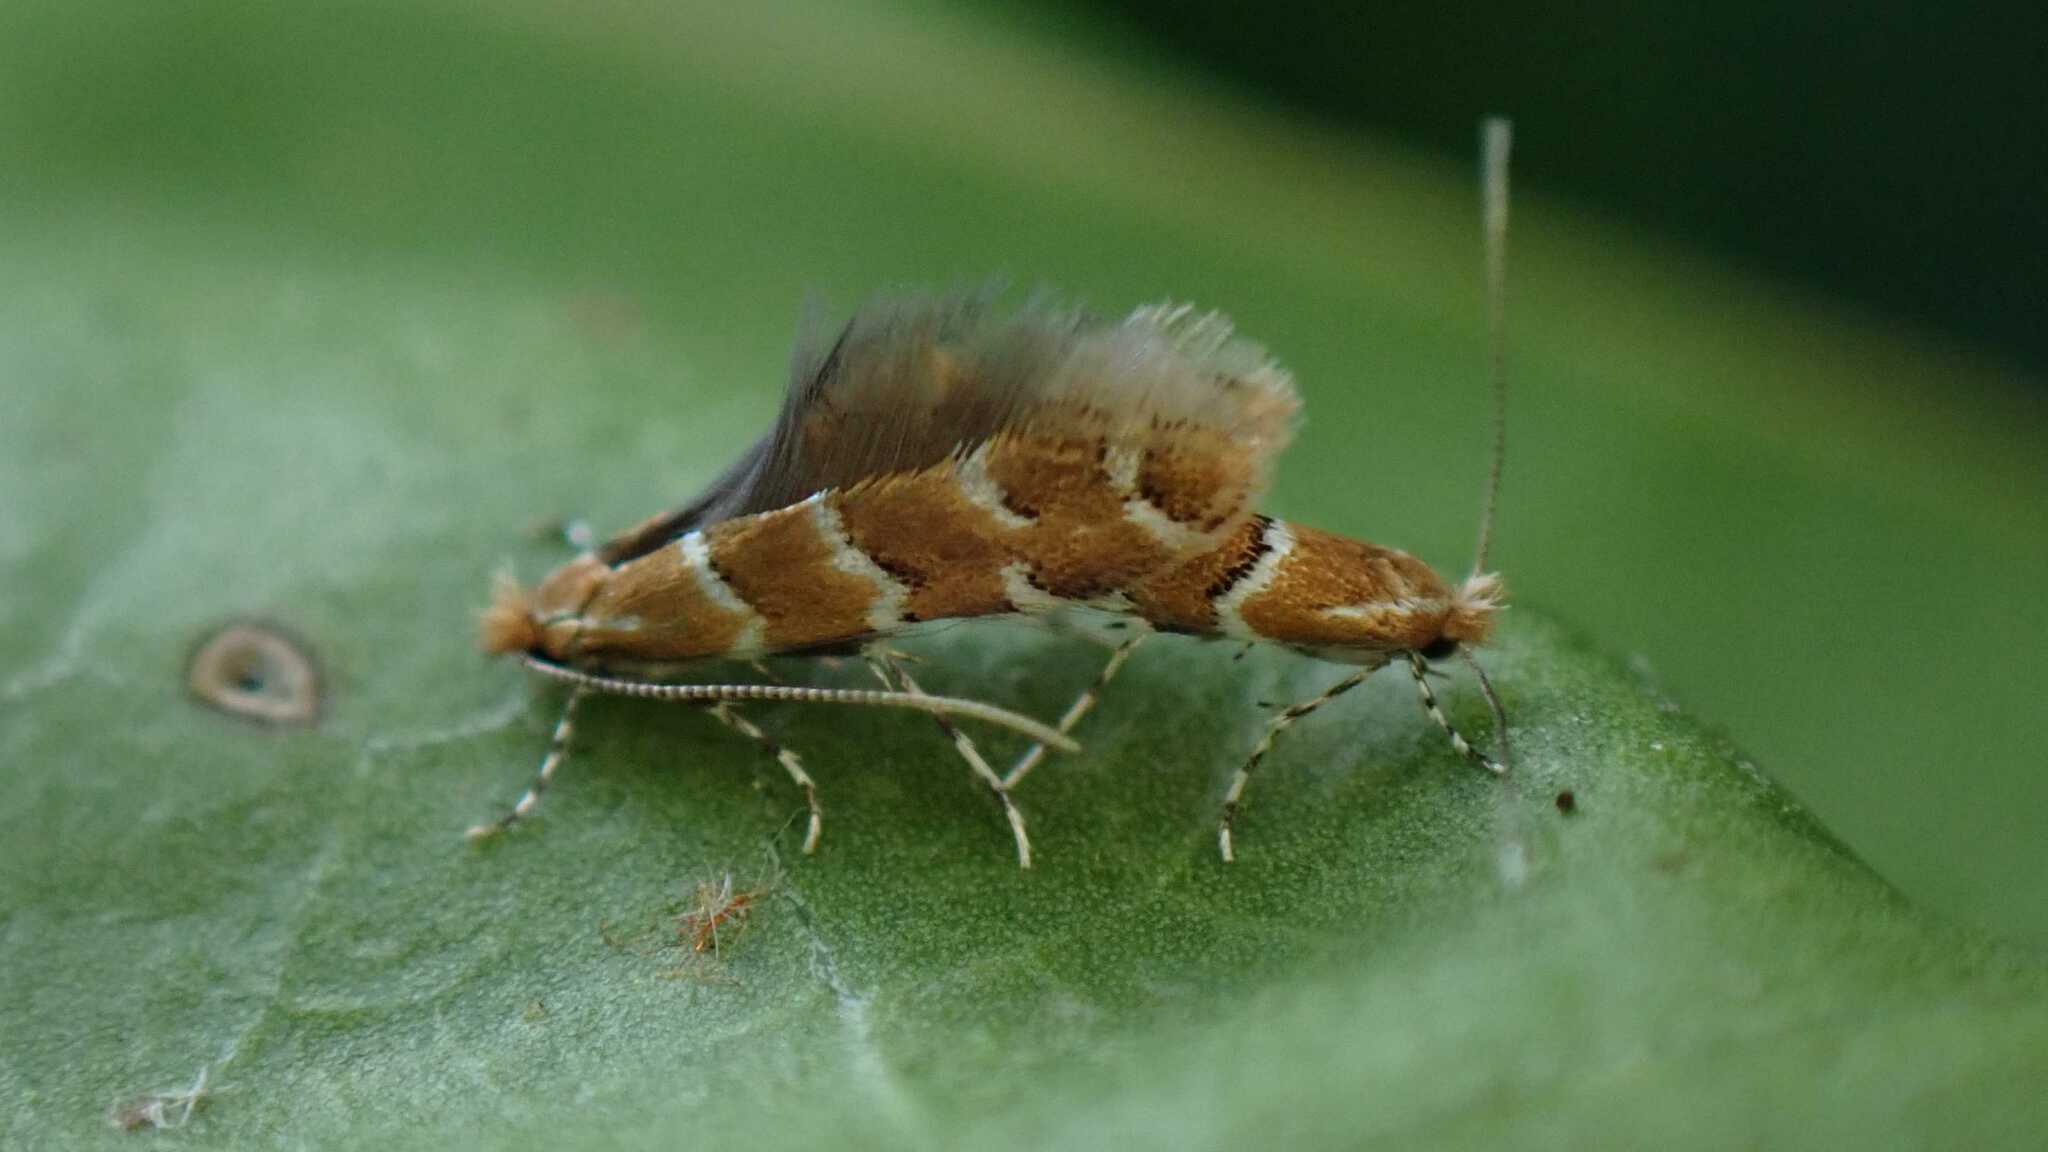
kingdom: Animalia
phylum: Arthropoda
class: Insecta
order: Lepidoptera
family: Gracillariidae
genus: Cameraria
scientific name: Cameraria ohridella
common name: Horse-chestnut leaf-miner
